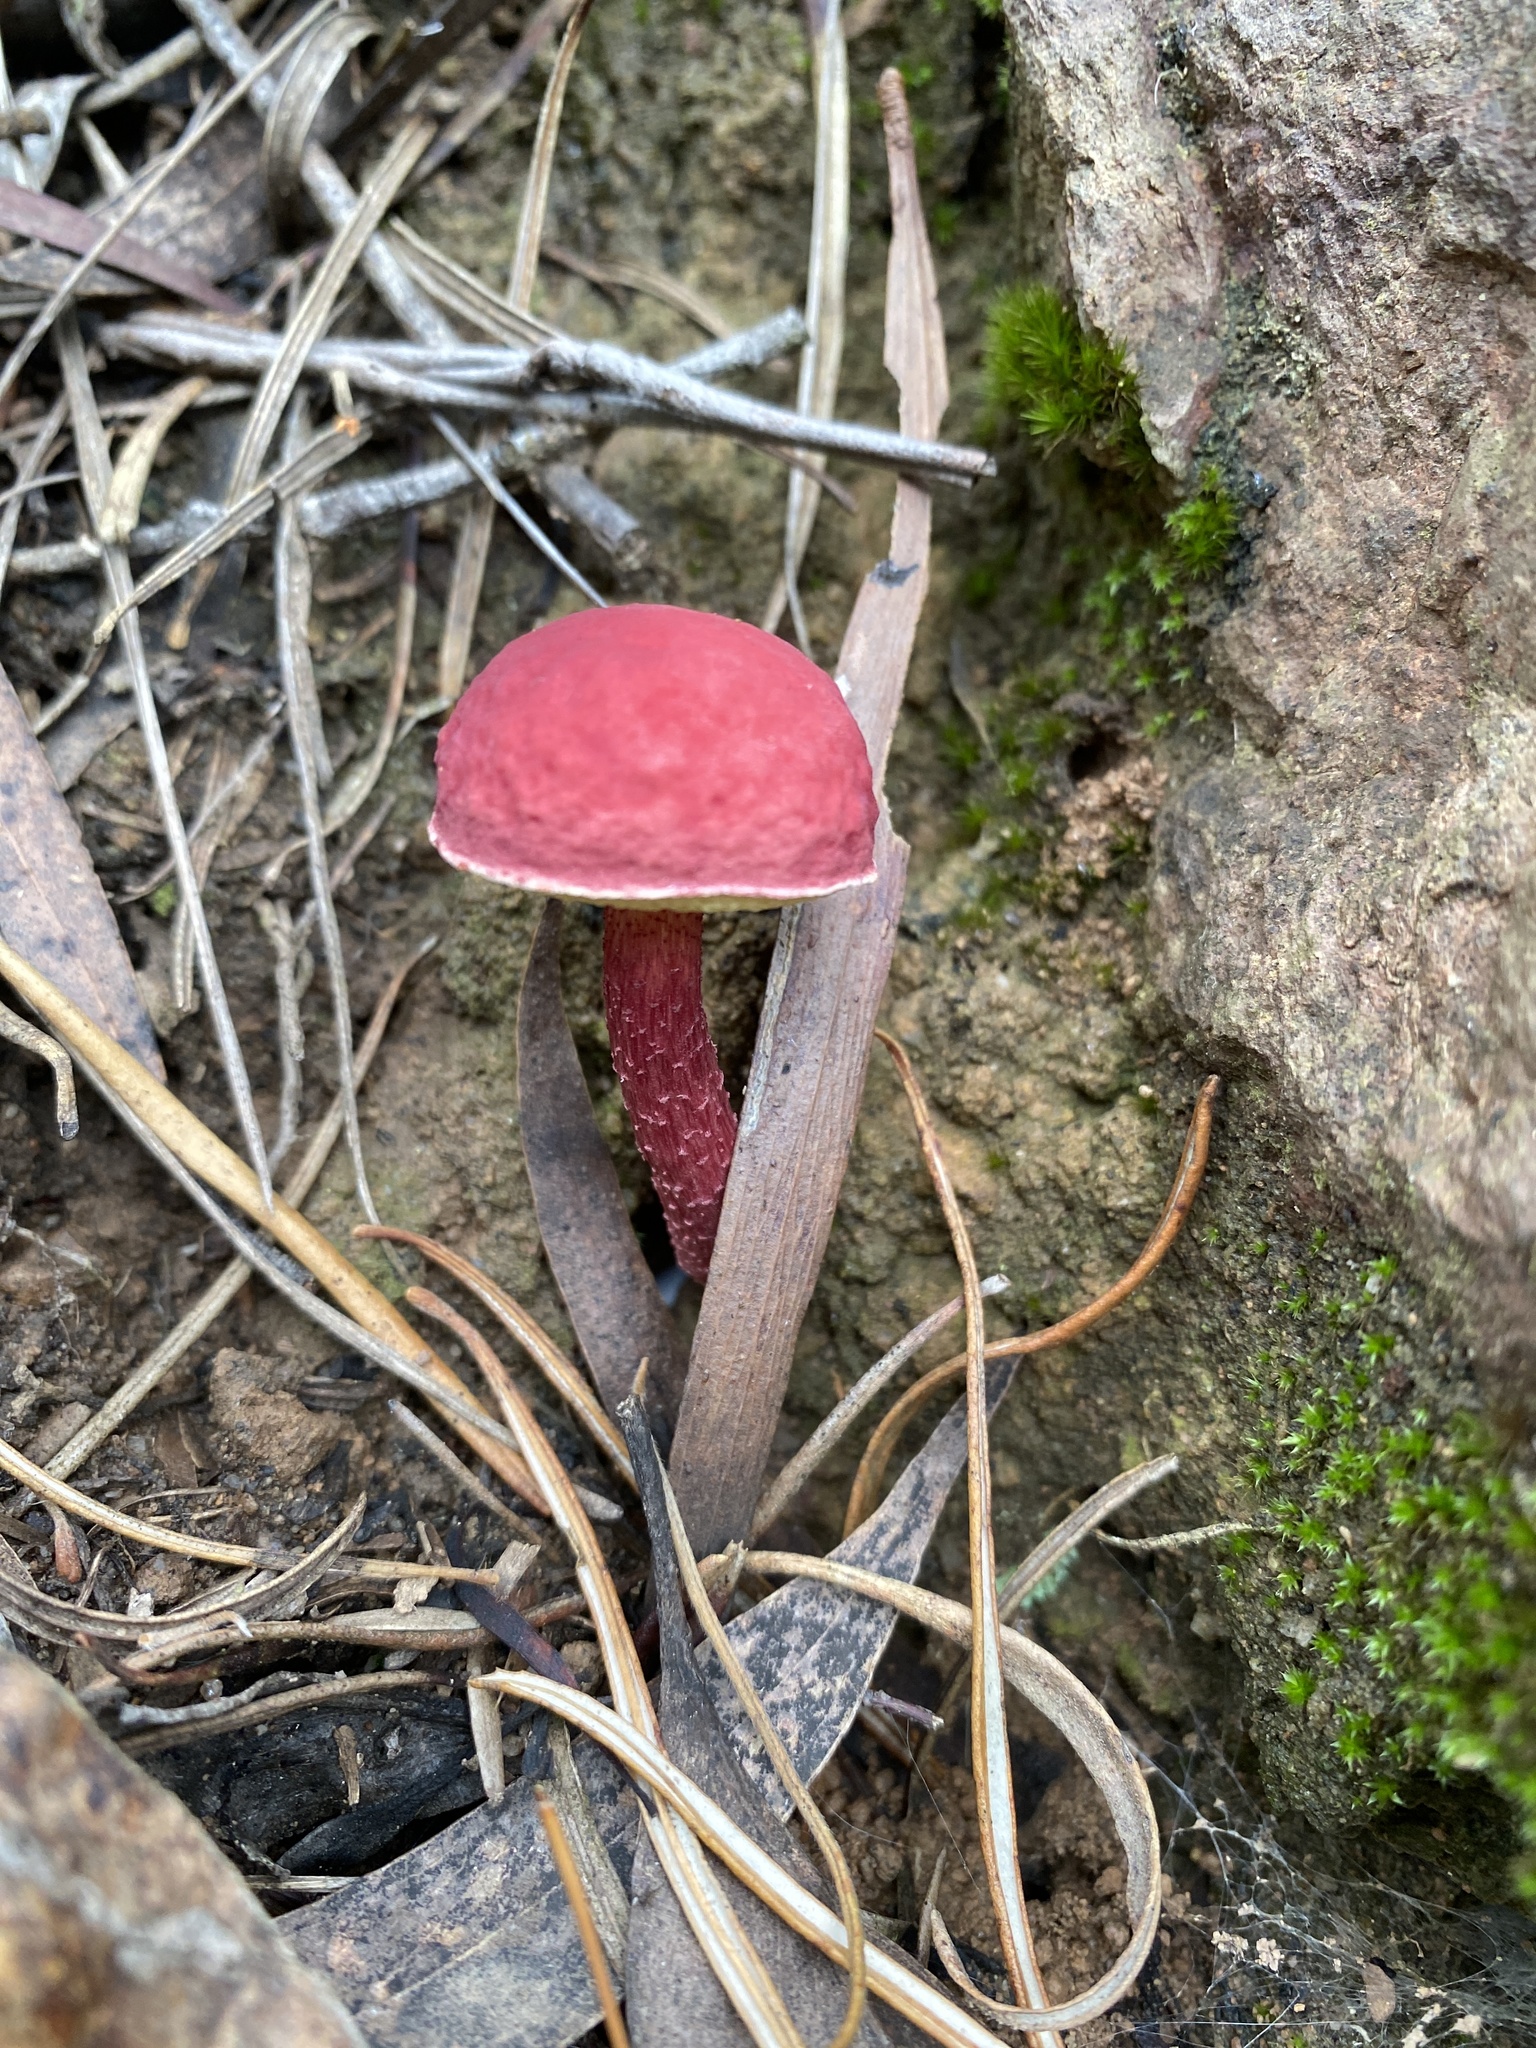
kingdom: Fungi
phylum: Basidiomycota
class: Agaricomycetes
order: Boletales
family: Boletaceae
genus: Boletellus
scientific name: Boletellus obscurecoccineus
